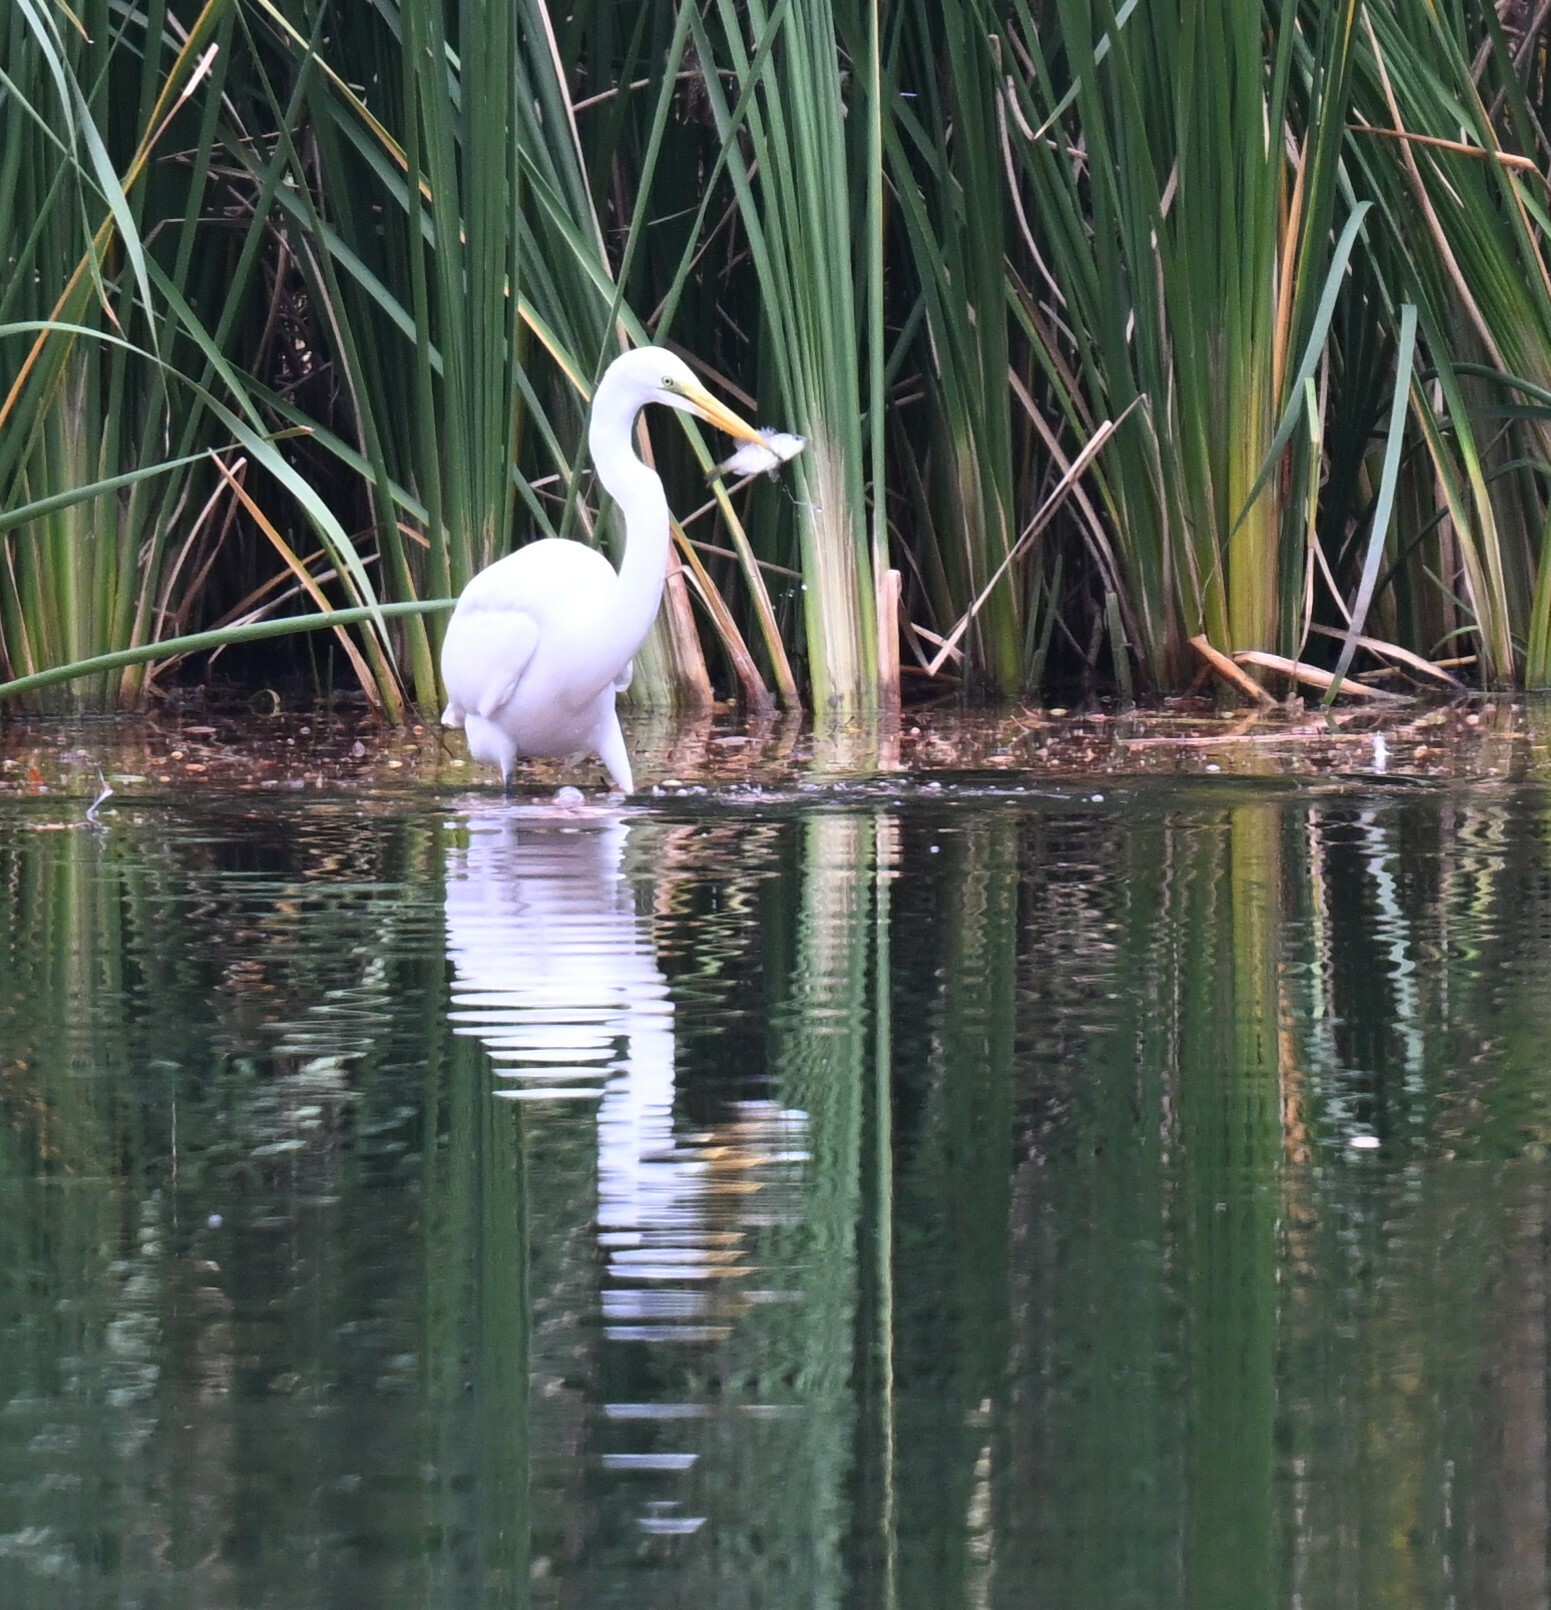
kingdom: Animalia
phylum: Chordata
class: Aves
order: Pelecaniformes
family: Ardeidae
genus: Ardea
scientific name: Ardea alba
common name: Great egret
